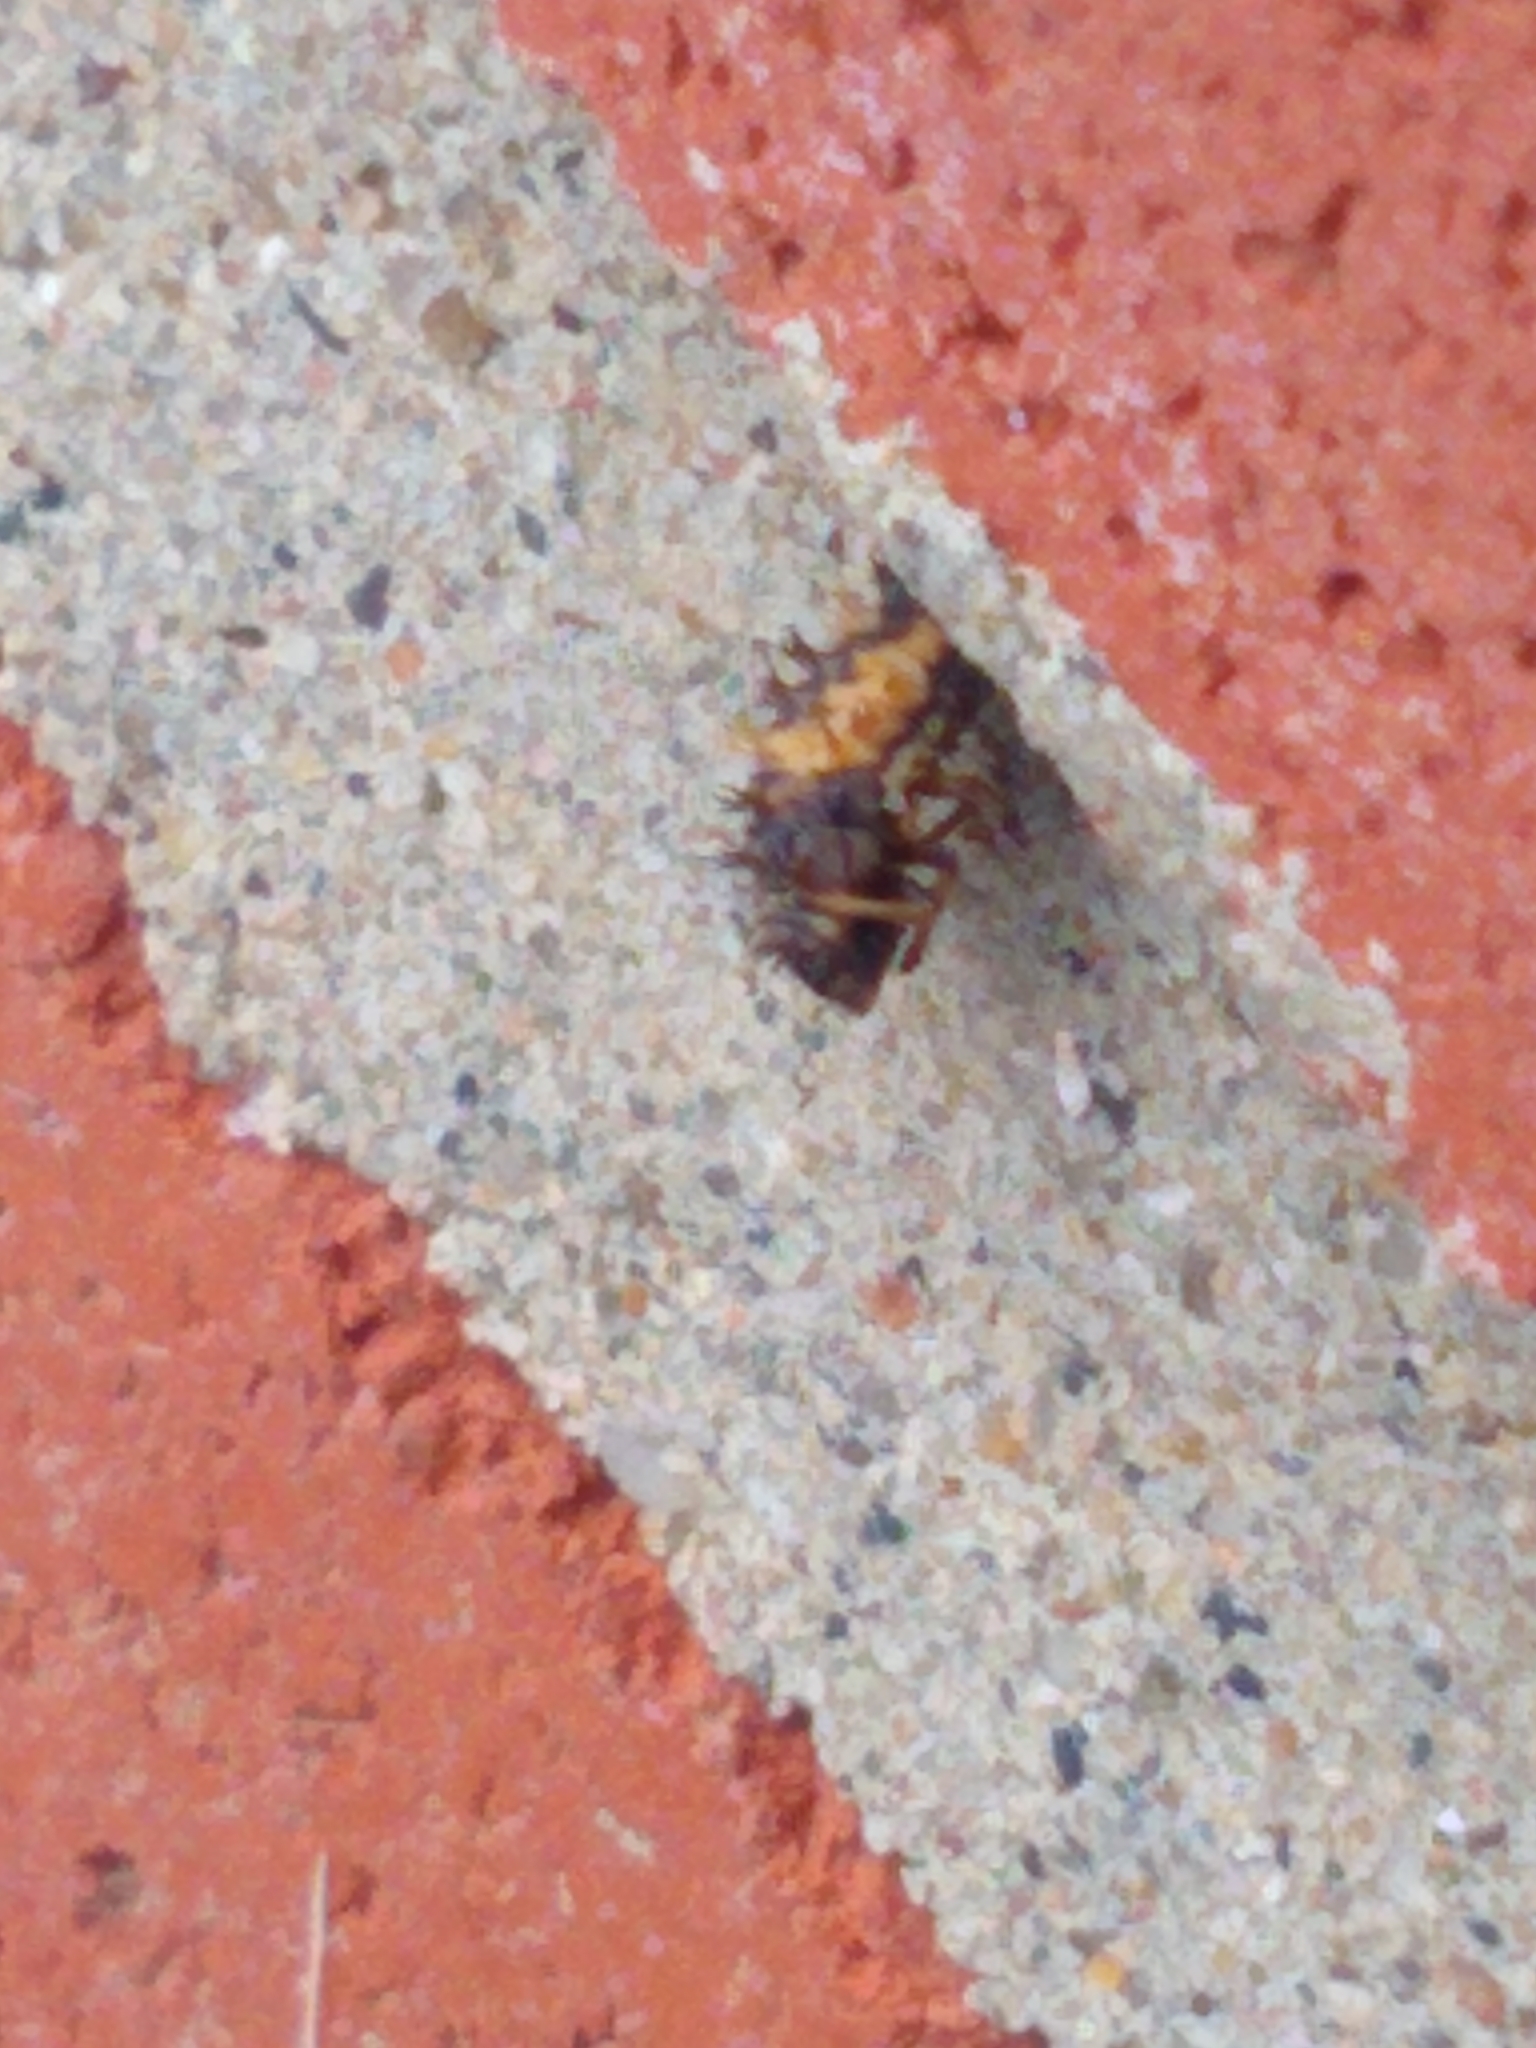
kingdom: Animalia
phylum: Arthropoda
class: Insecta
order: Coleoptera
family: Coccinellidae
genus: Harmonia
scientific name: Harmonia axyridis
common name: Harlequin ladybird
